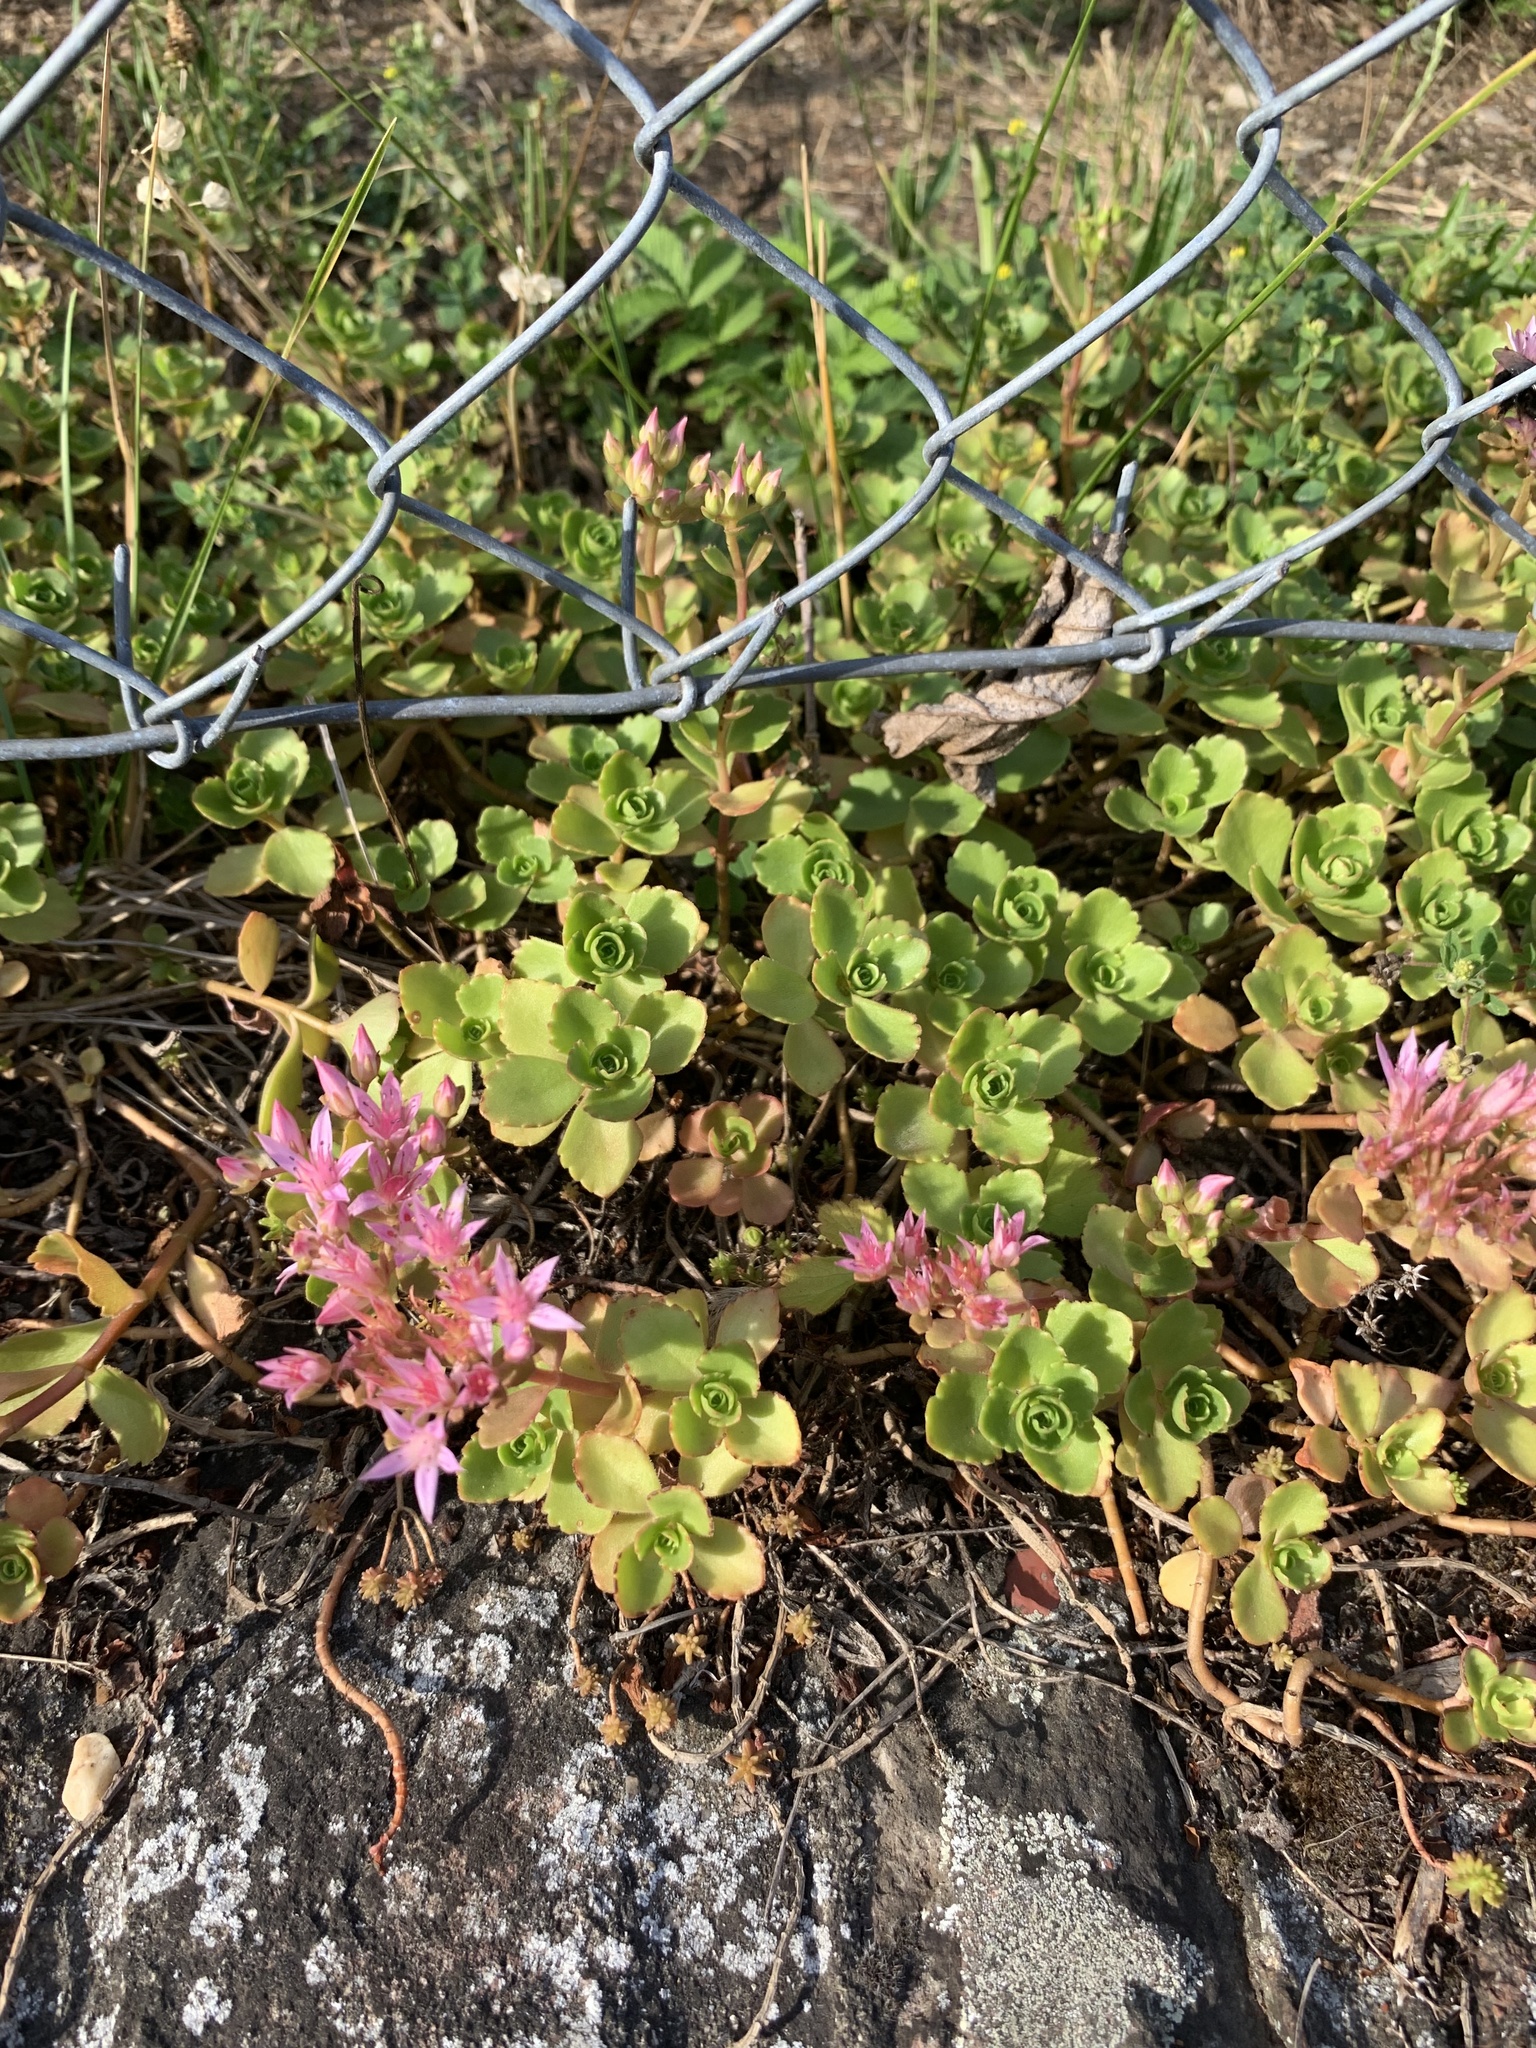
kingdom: Plantae
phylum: Tracheophyta
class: Magnoliopsida
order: Saxifragales
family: Crassulaceae
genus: Phedimus
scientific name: Phedimus spurius
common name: Caucasian stonecrop
